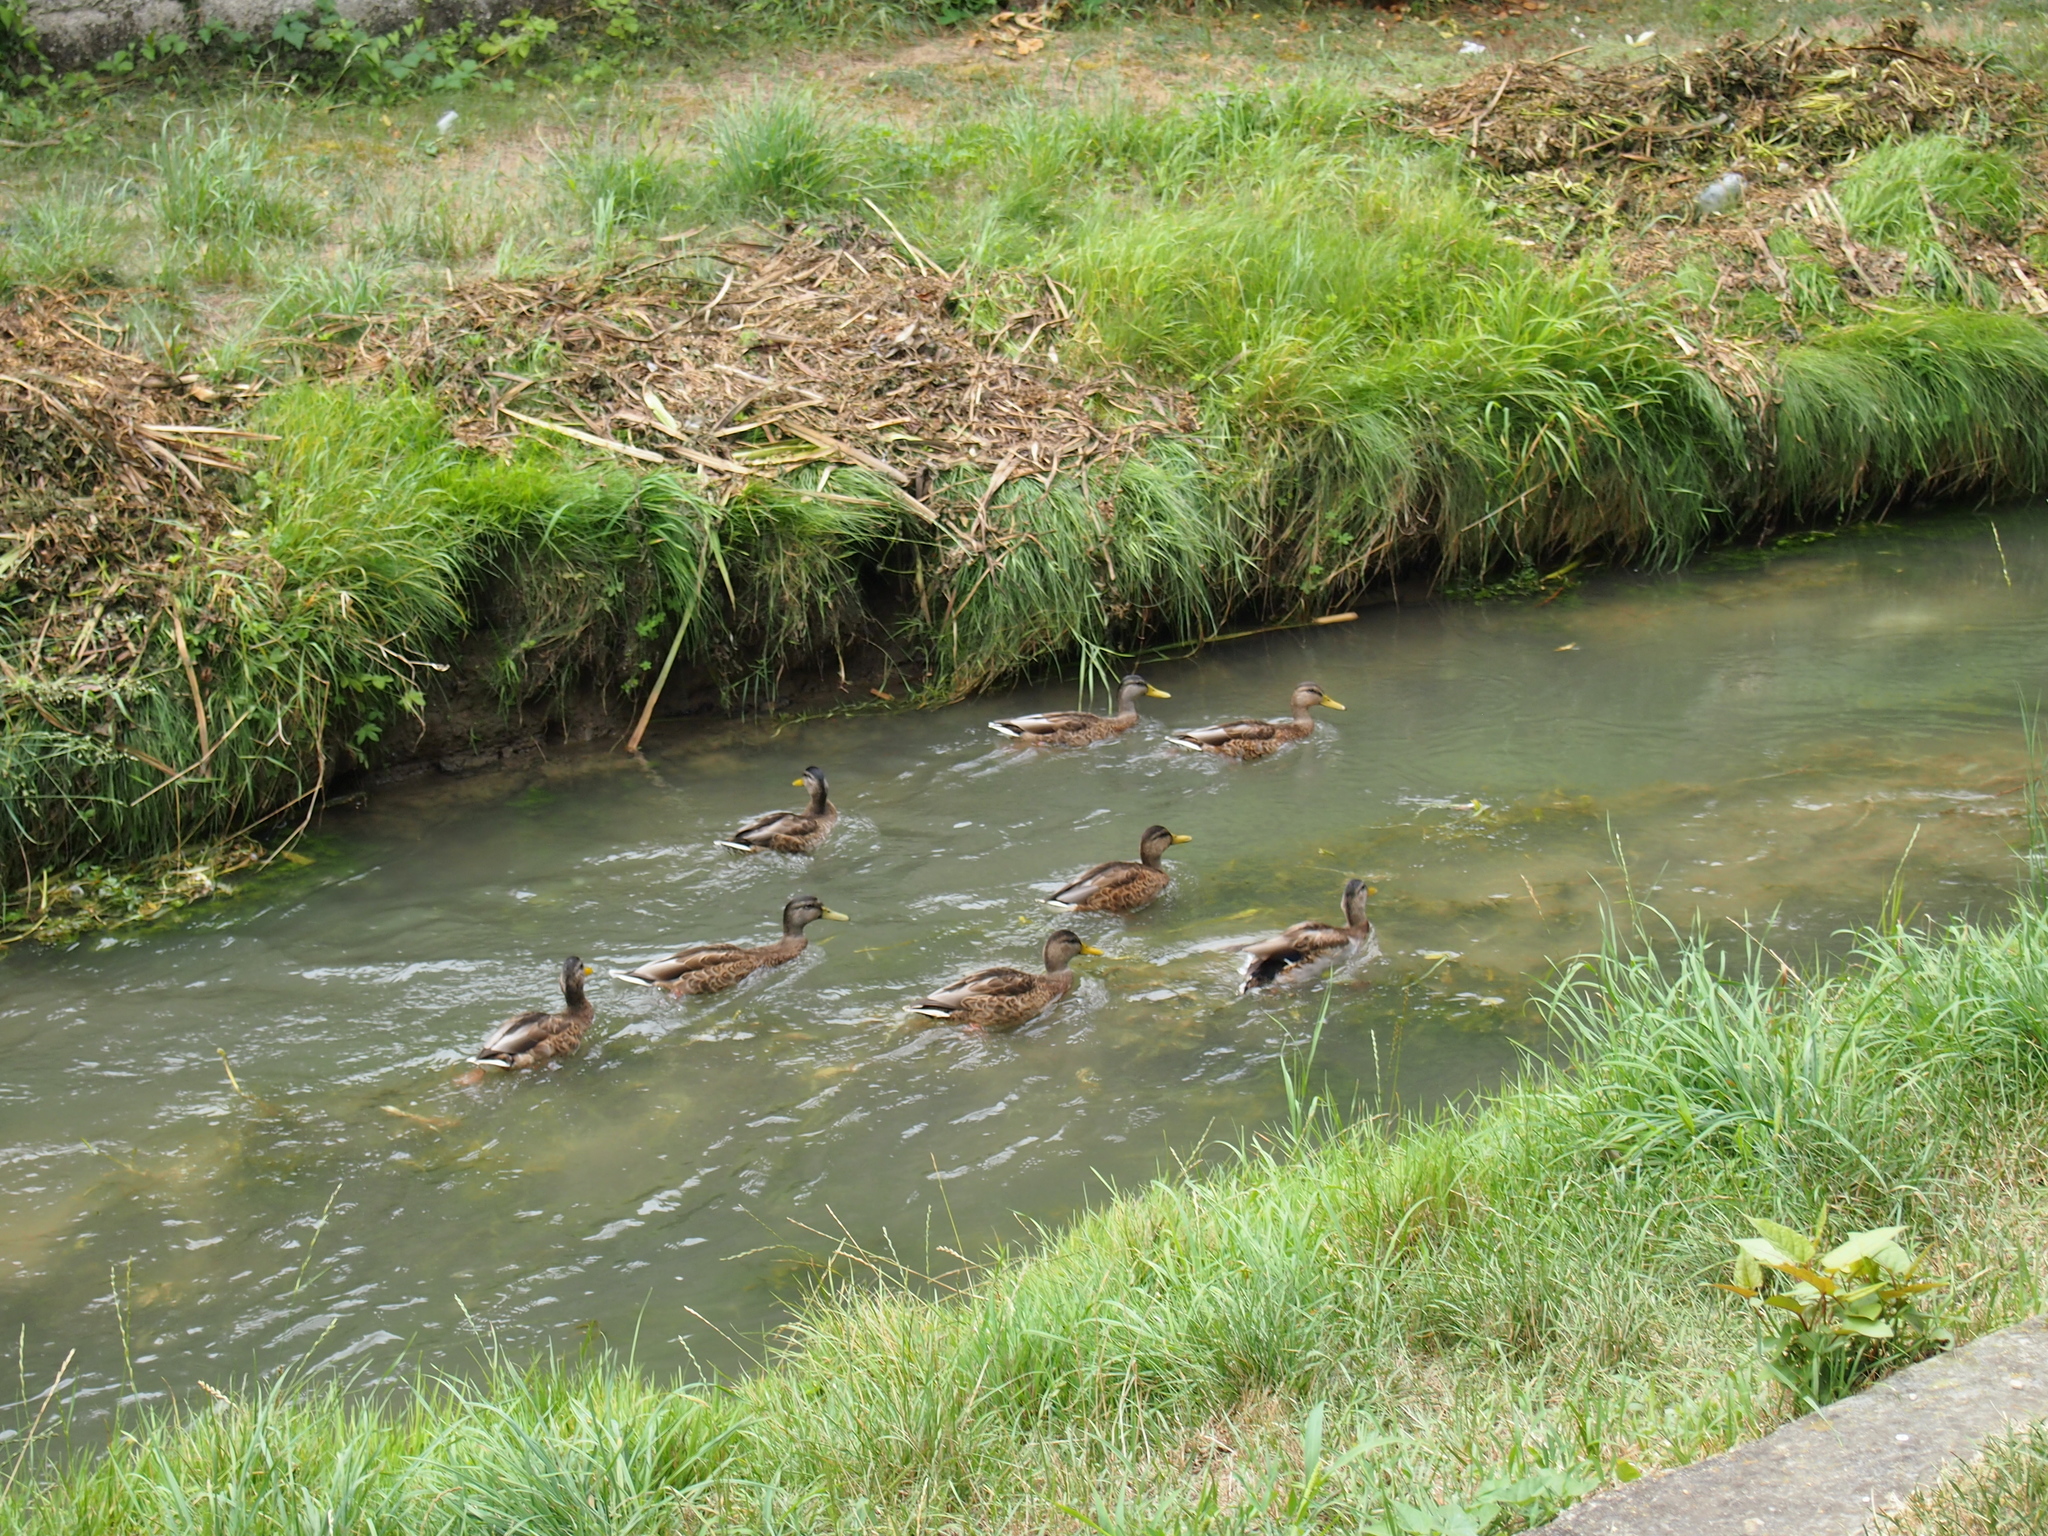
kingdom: Animalia
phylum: Chordata
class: Aves
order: Anseriformes
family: Anatidae
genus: Anas
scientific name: Anas platyrhynchos
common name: Mallard
